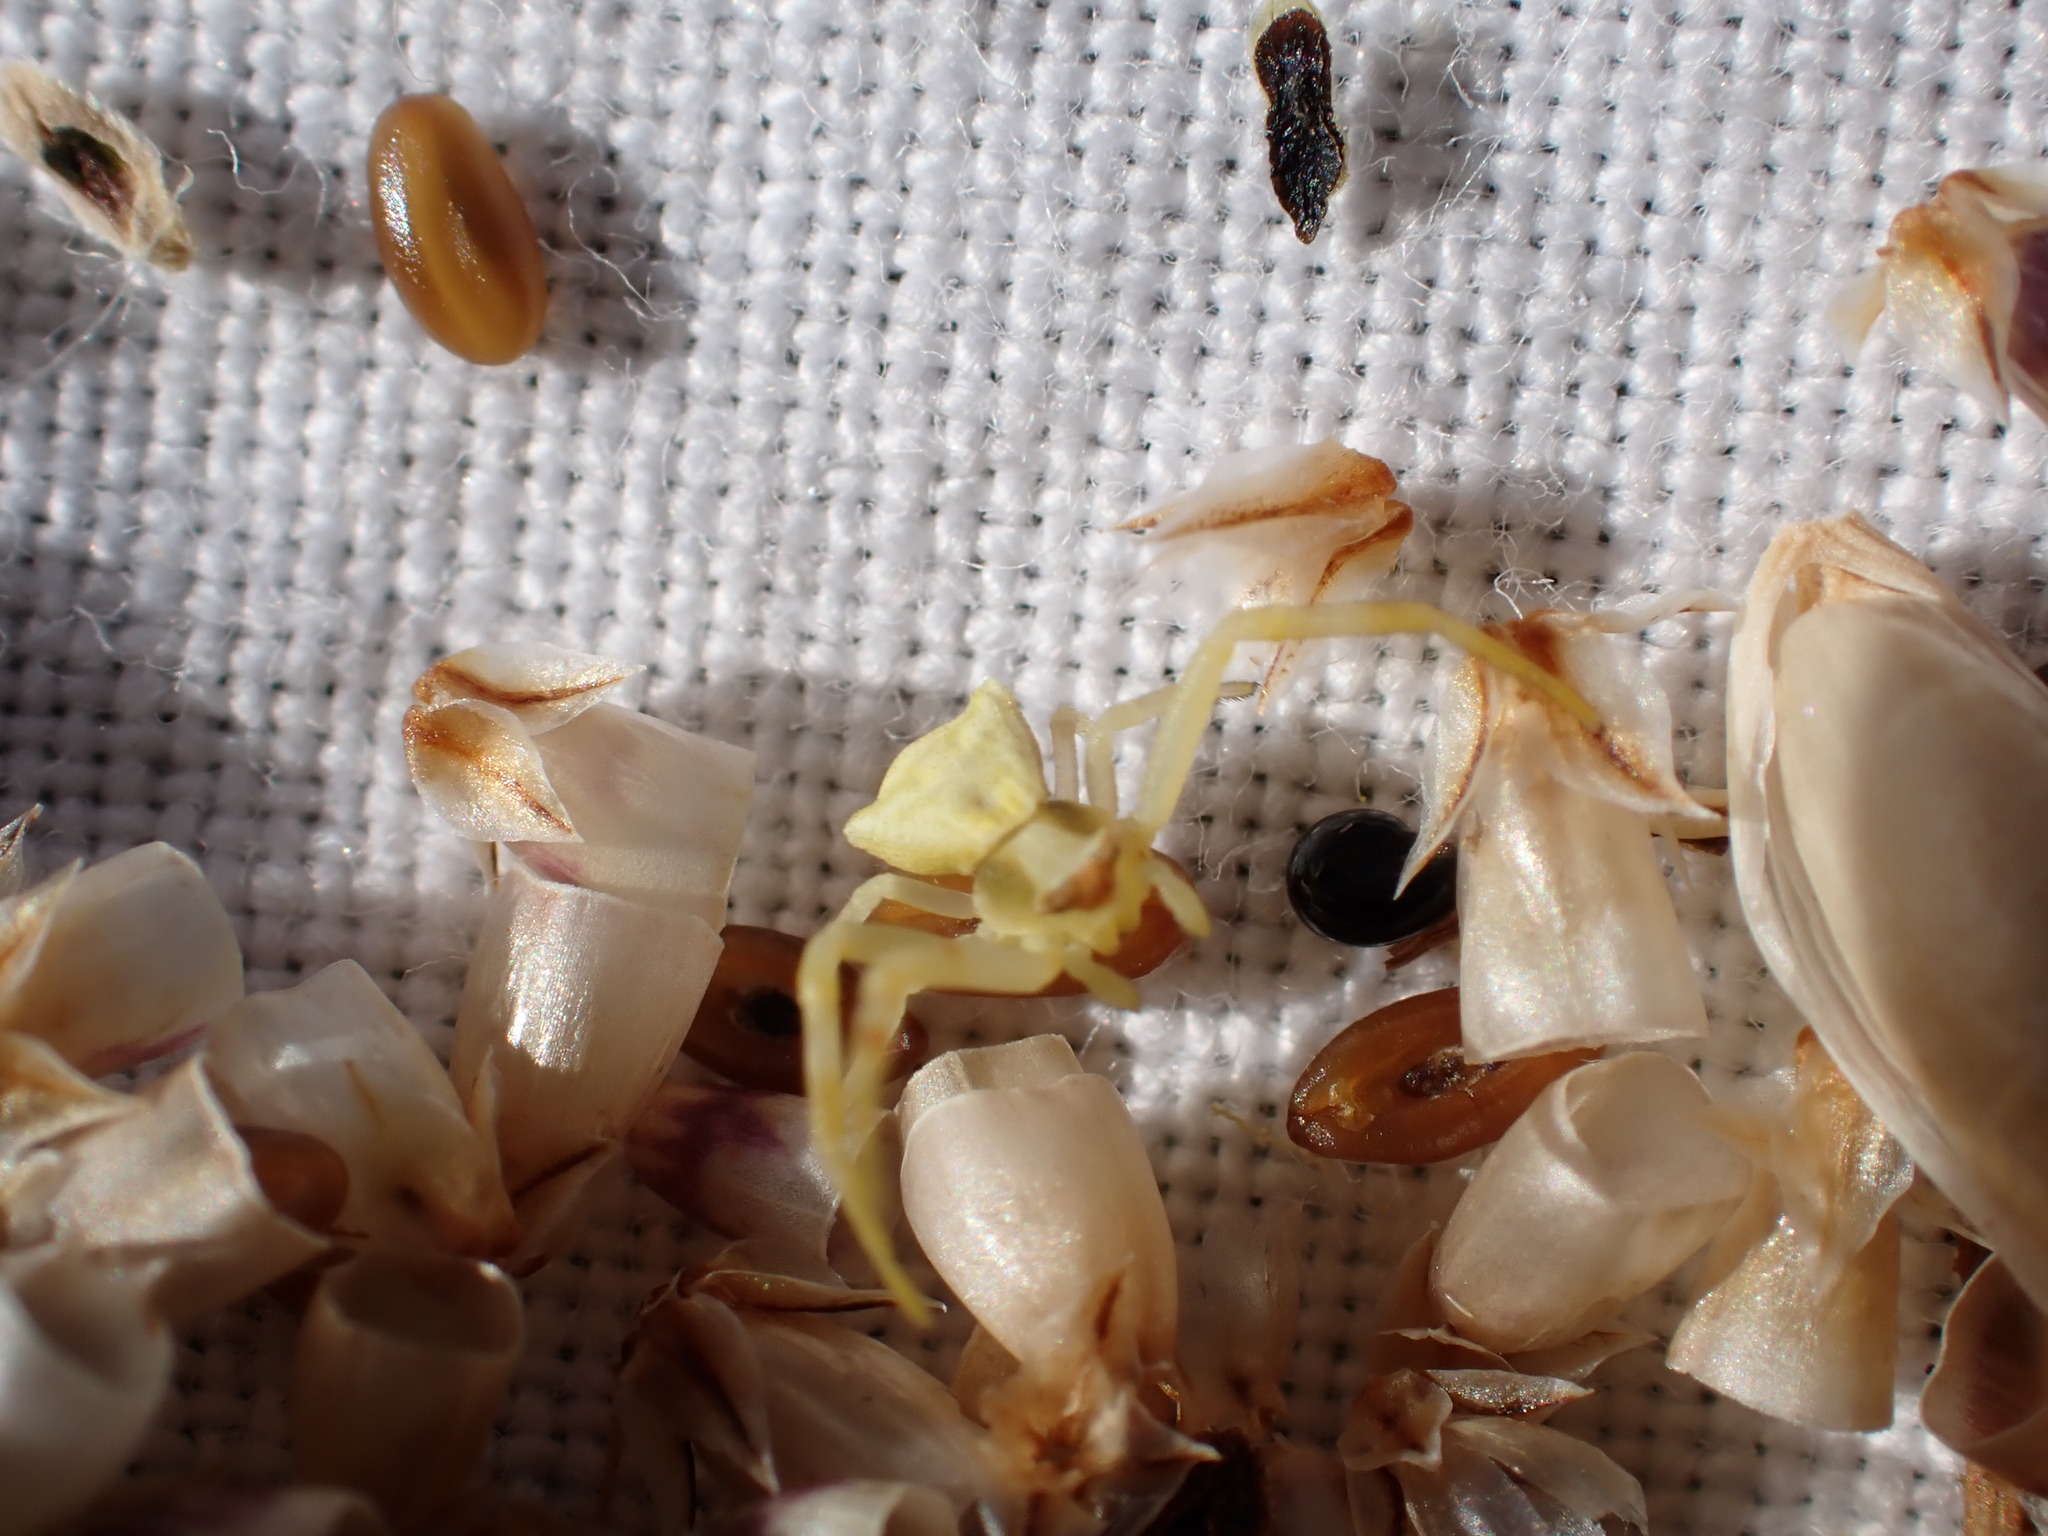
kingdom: Animalia
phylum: Arthropoda
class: Arachnida
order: Araneae
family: Thomisidae
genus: Thomisus
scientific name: Thomisus onustus
